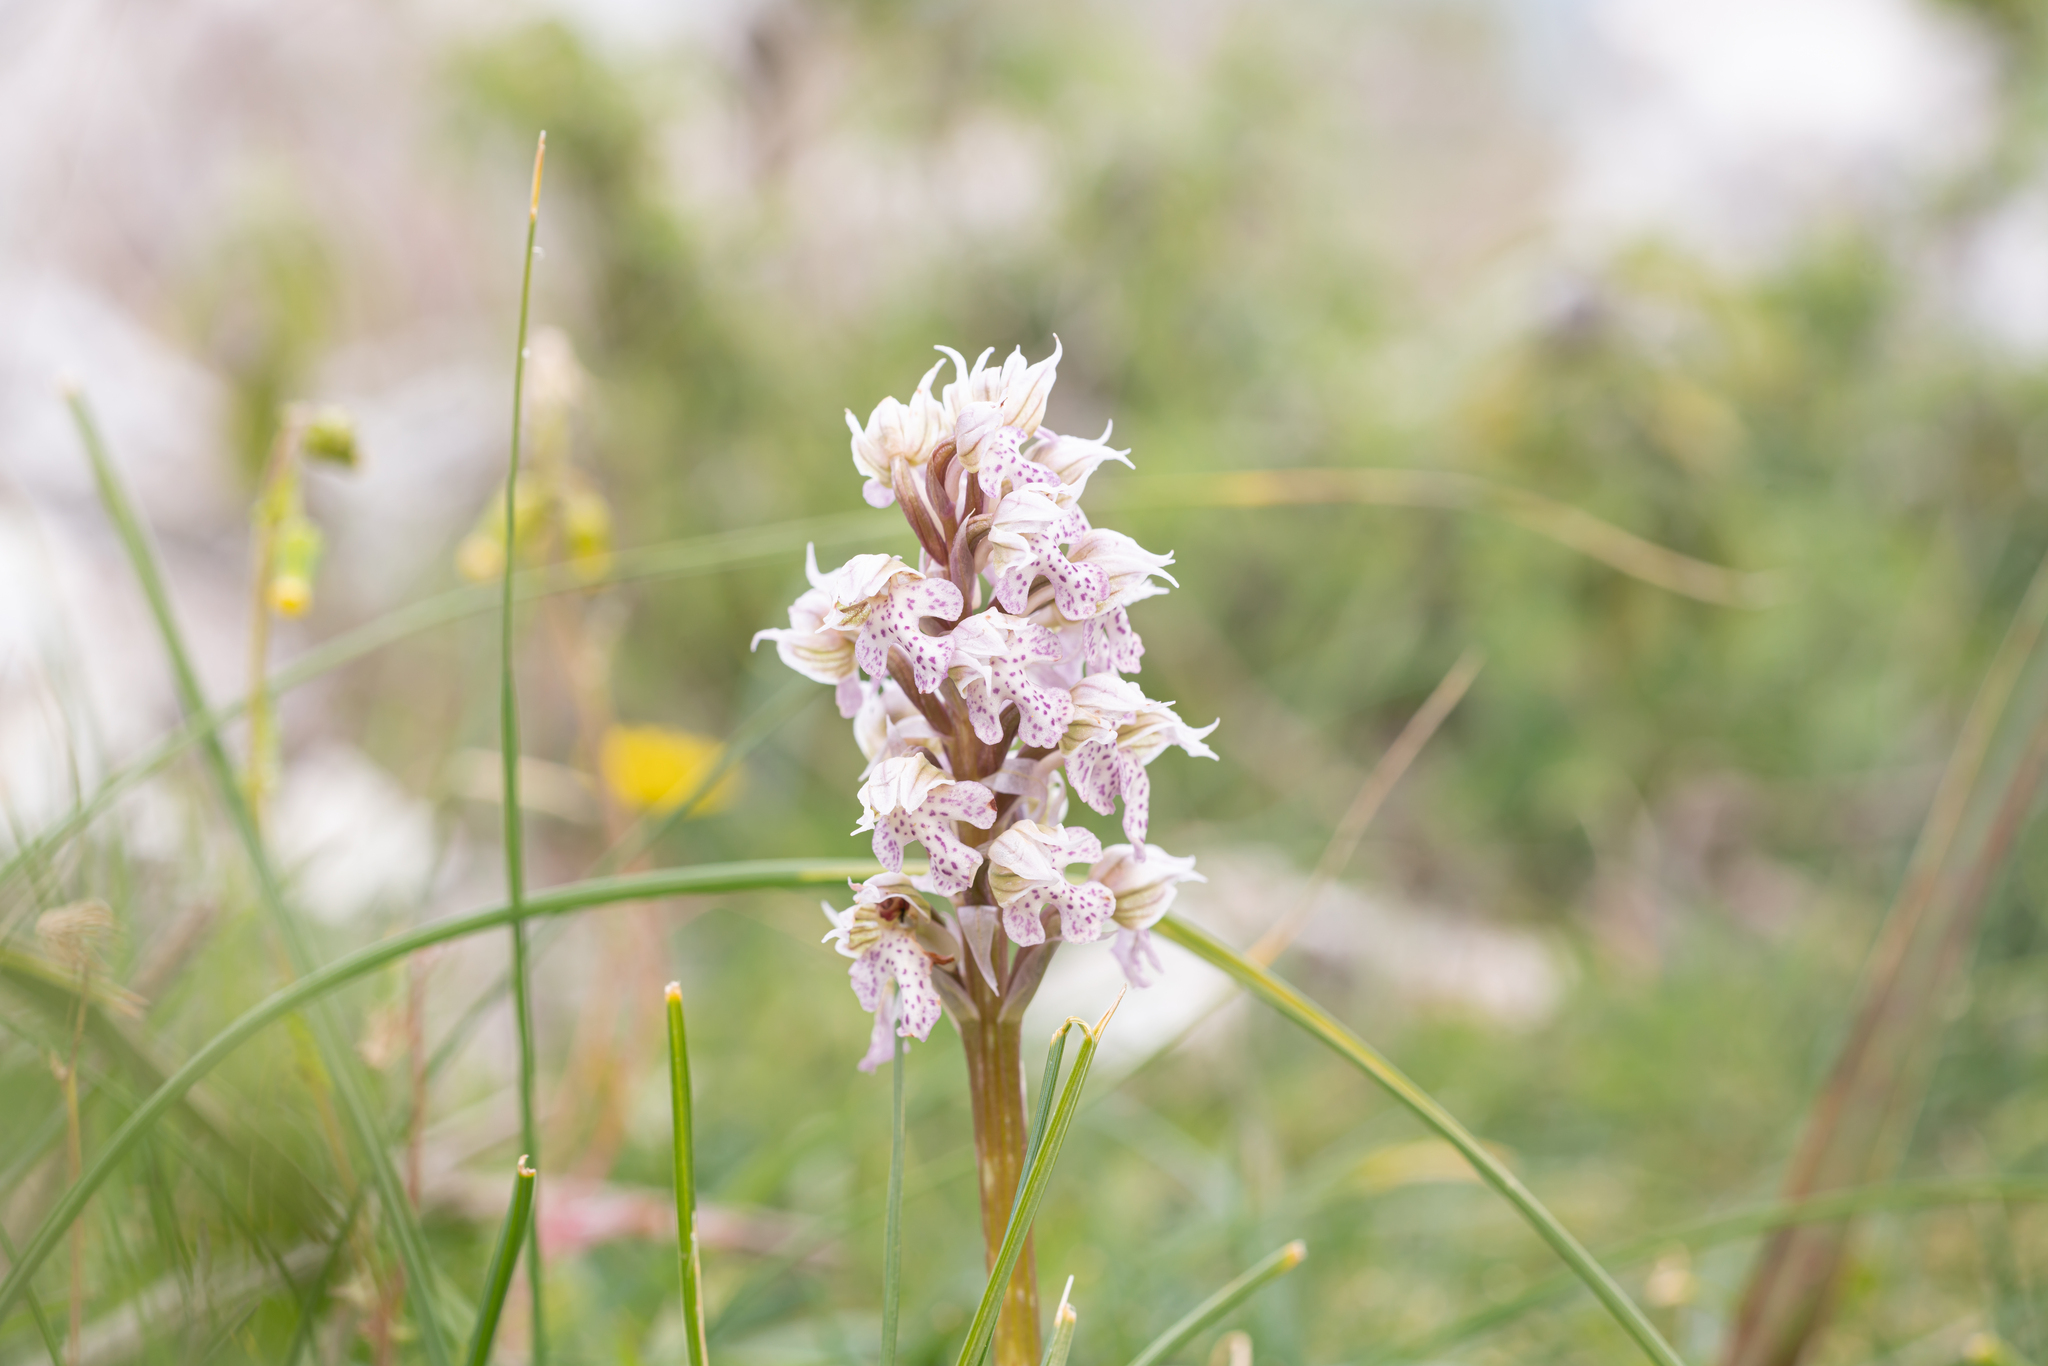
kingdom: Plantae
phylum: Tracheophyta
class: Liliopsida
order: Asparagales
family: Orchidaceae
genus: Neotinea
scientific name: Neotinea lactea
